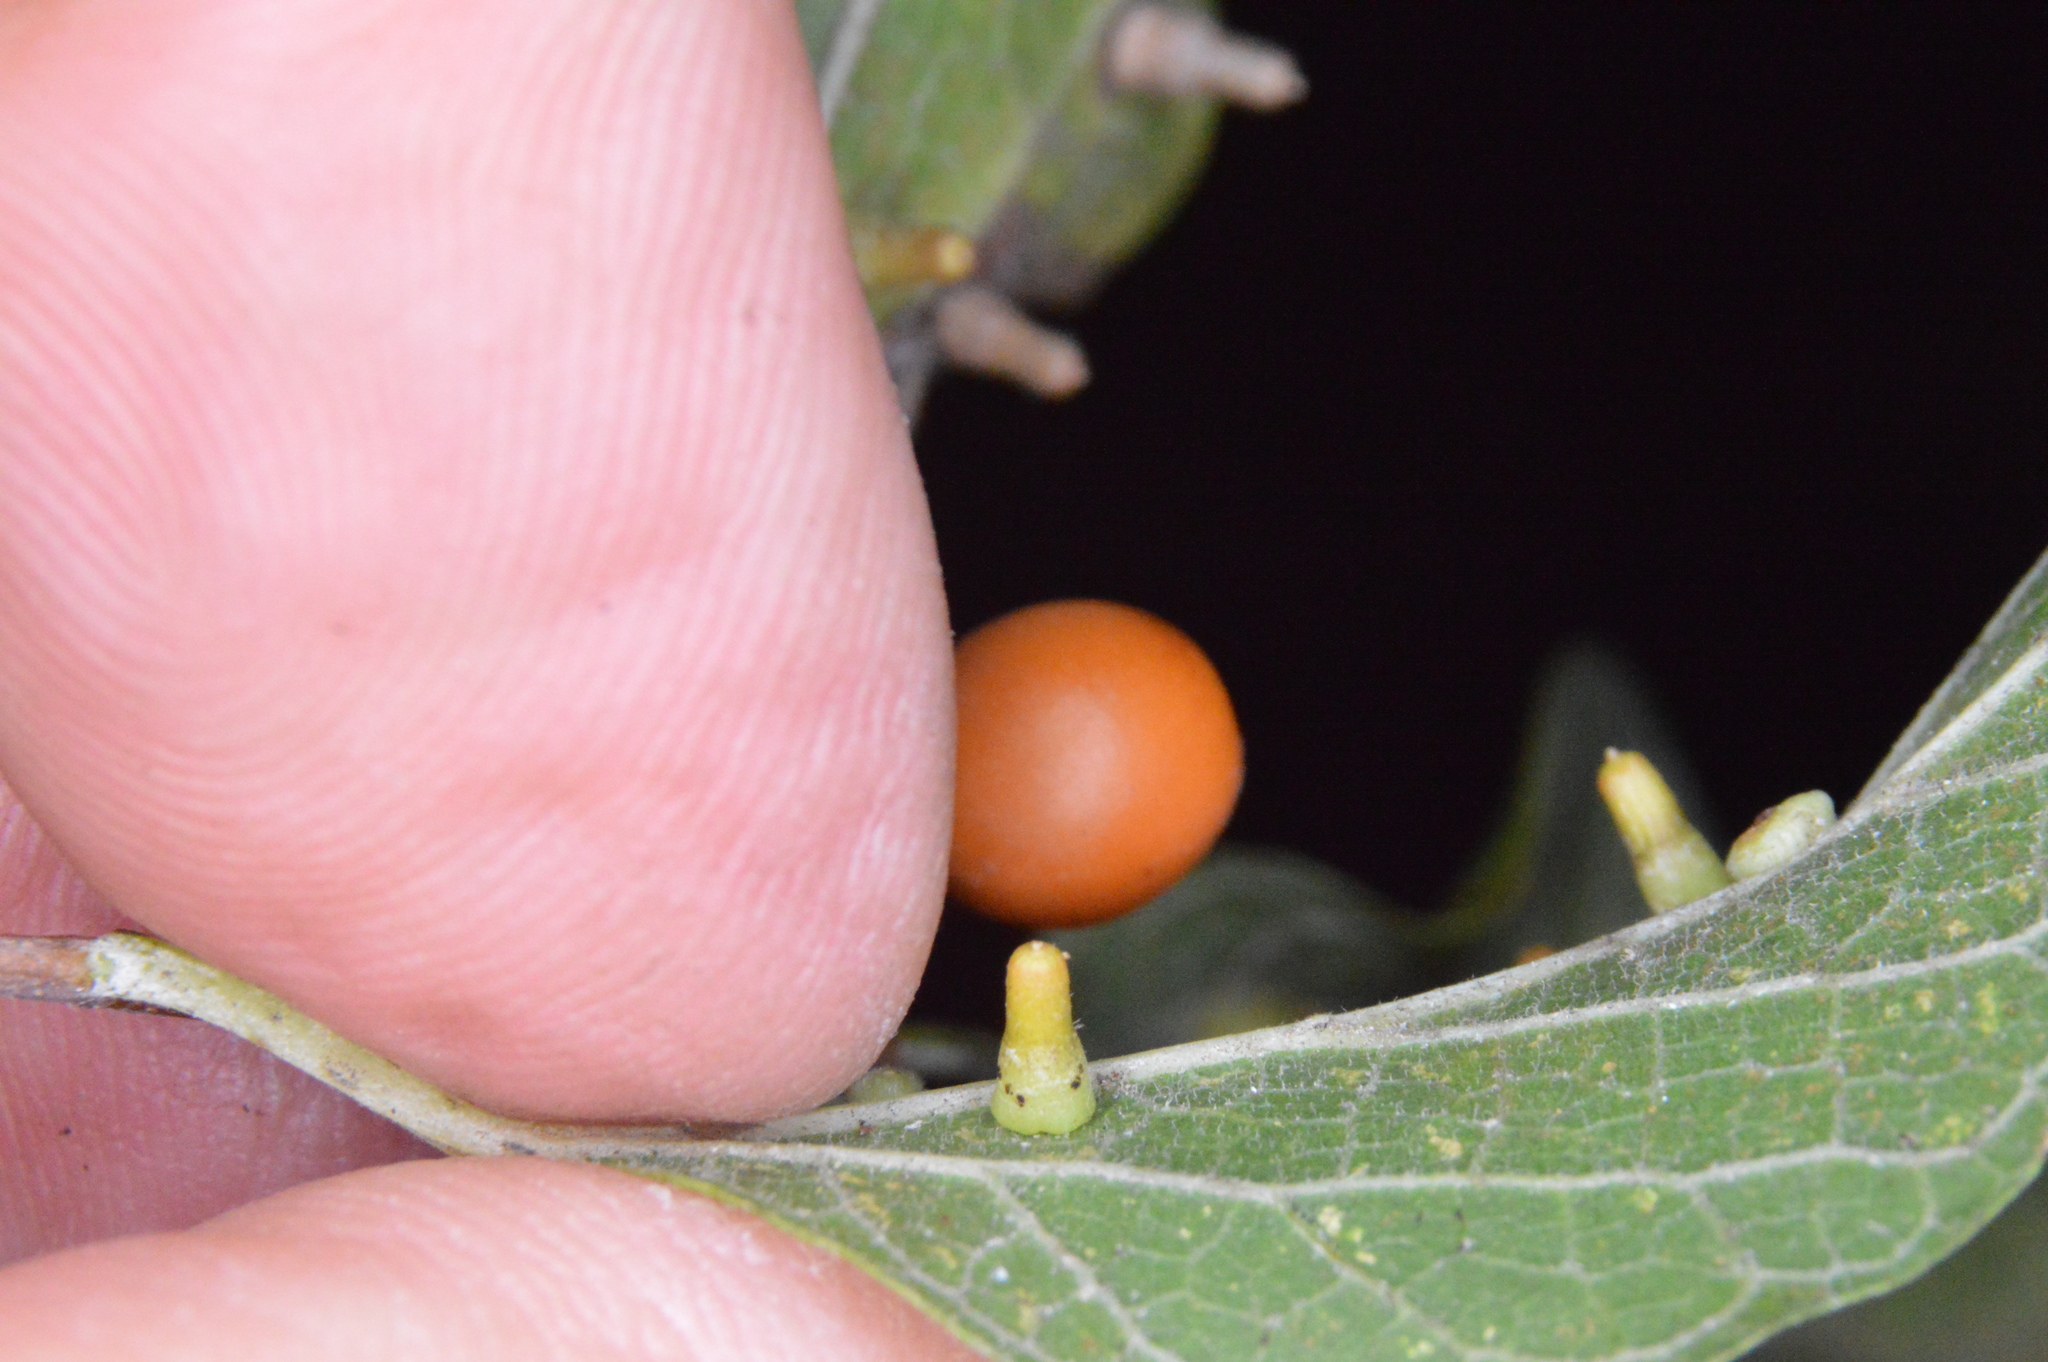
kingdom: Animalia
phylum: Arthropoda
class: Insecta
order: Diptera
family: Cecidomyiidae
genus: Celticecis
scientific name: Celticecis aciculata
